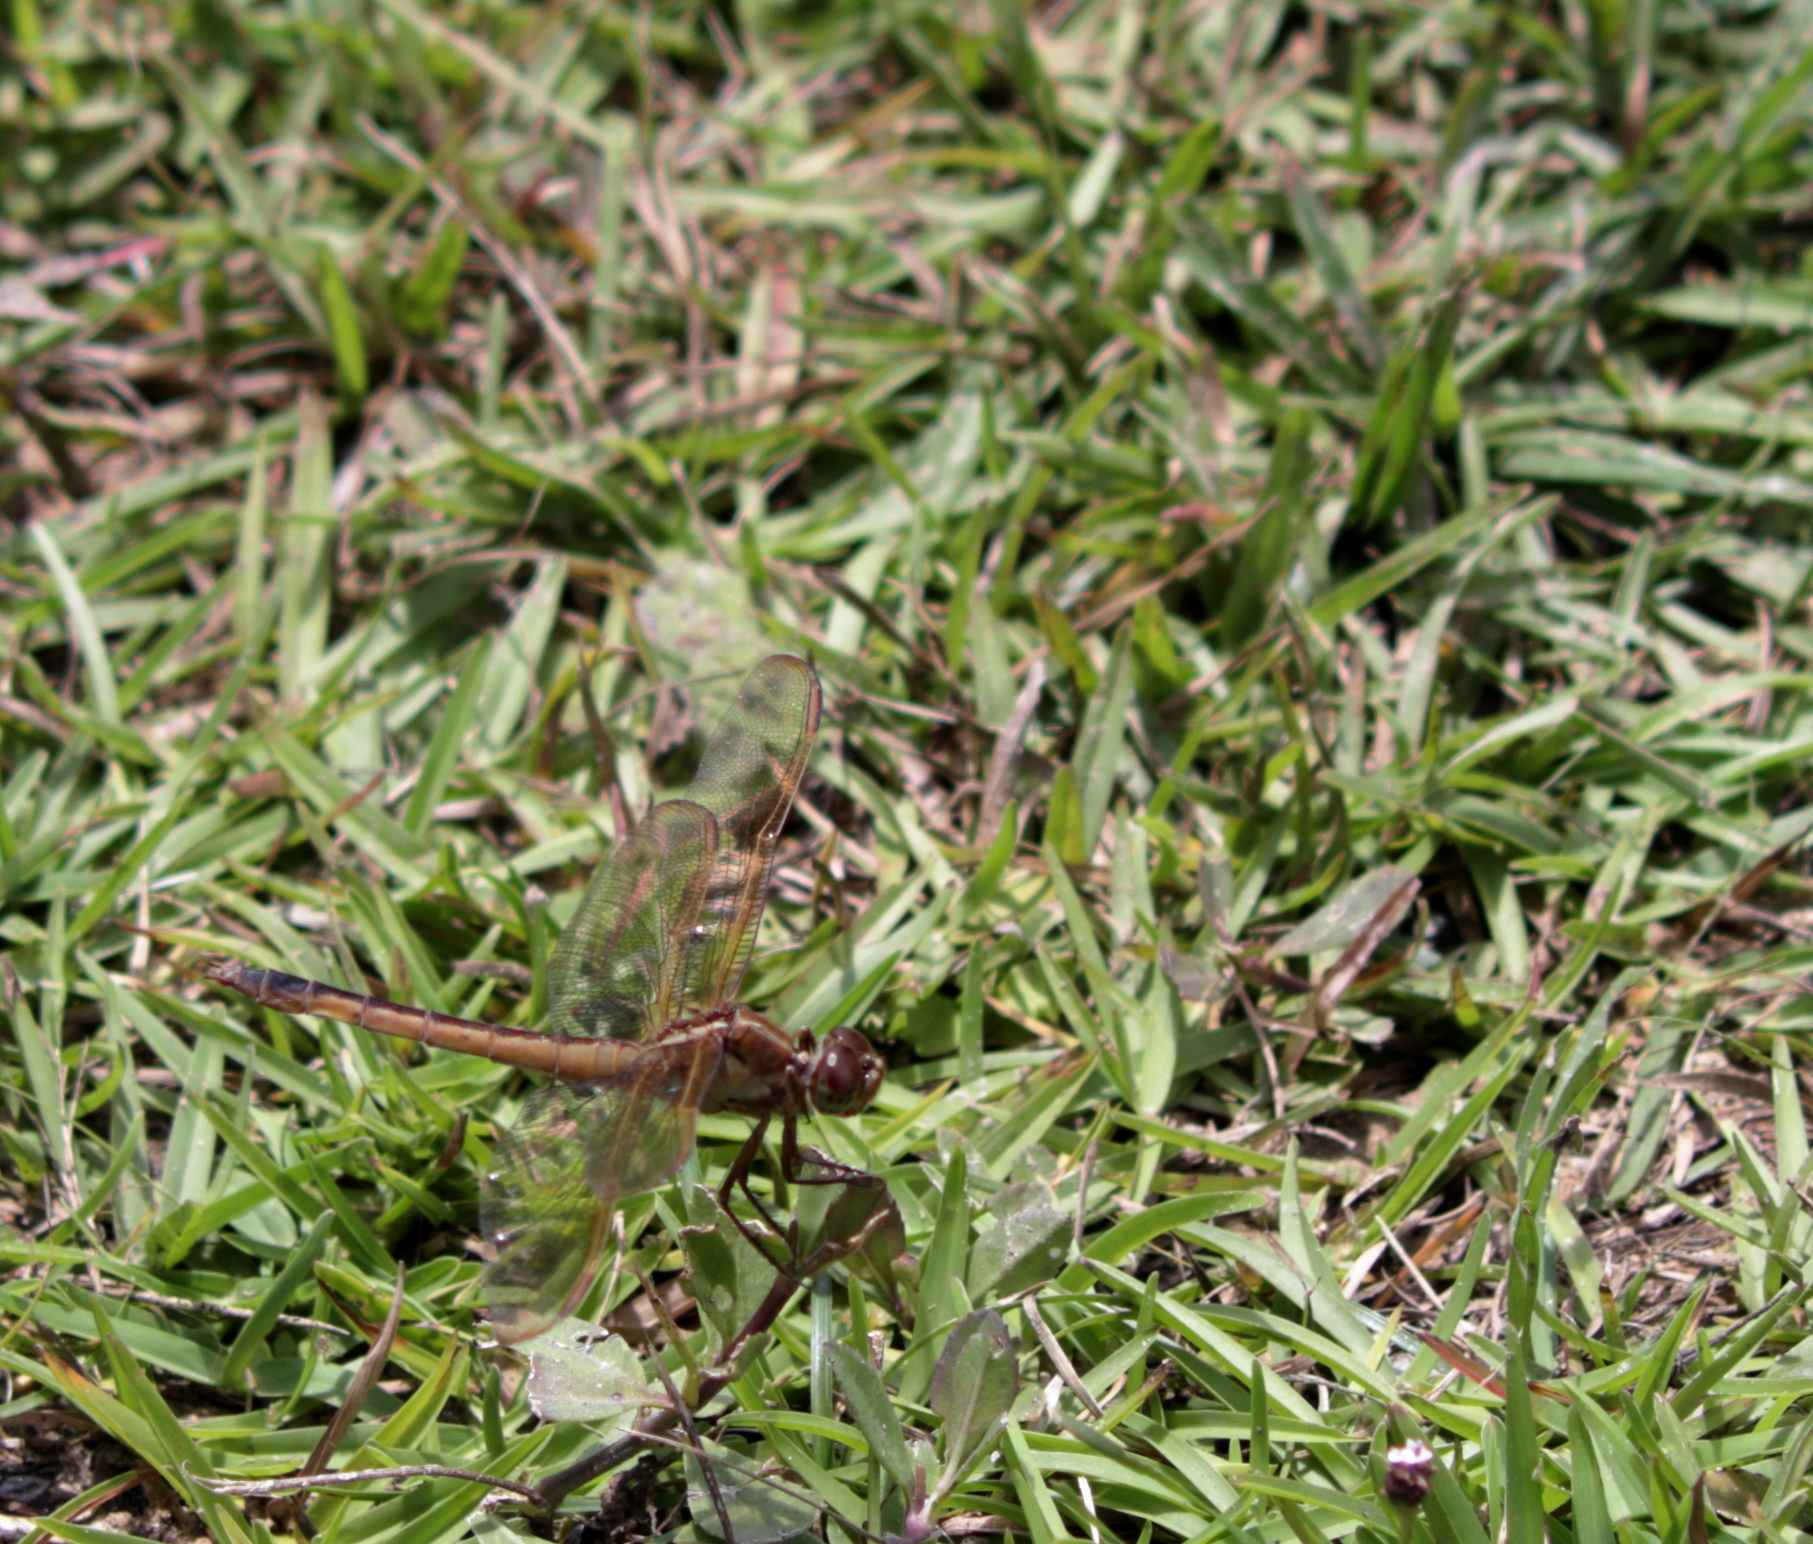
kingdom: Animalia
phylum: Arthropoda
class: Insecta
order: Odonata
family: Libellulidae
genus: Libellula
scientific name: Libellula needhami
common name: Needham's skimmer
